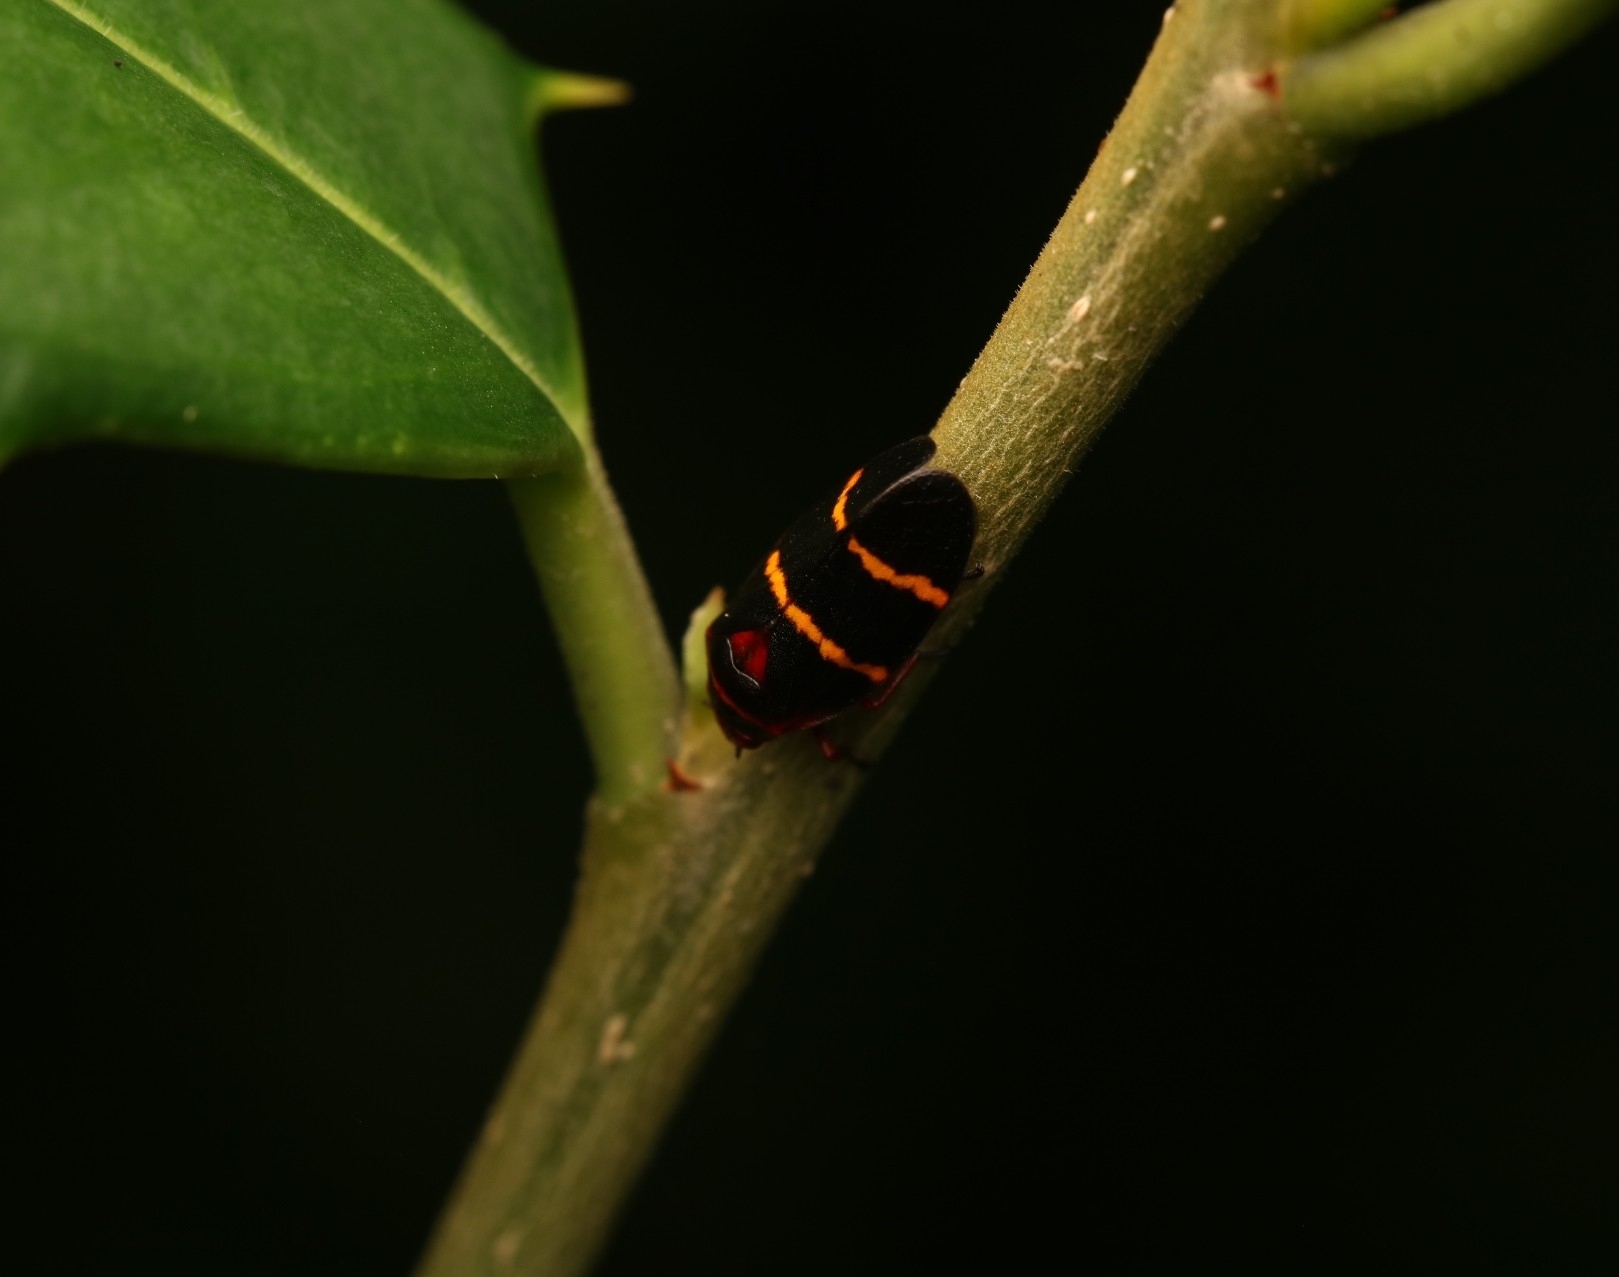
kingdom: Animalia
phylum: Arthropoda
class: Insecta
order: Hemiptera
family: Cercopidae
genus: Prosapia
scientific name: Prosapia bicincta
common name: Twolined spittlebug
